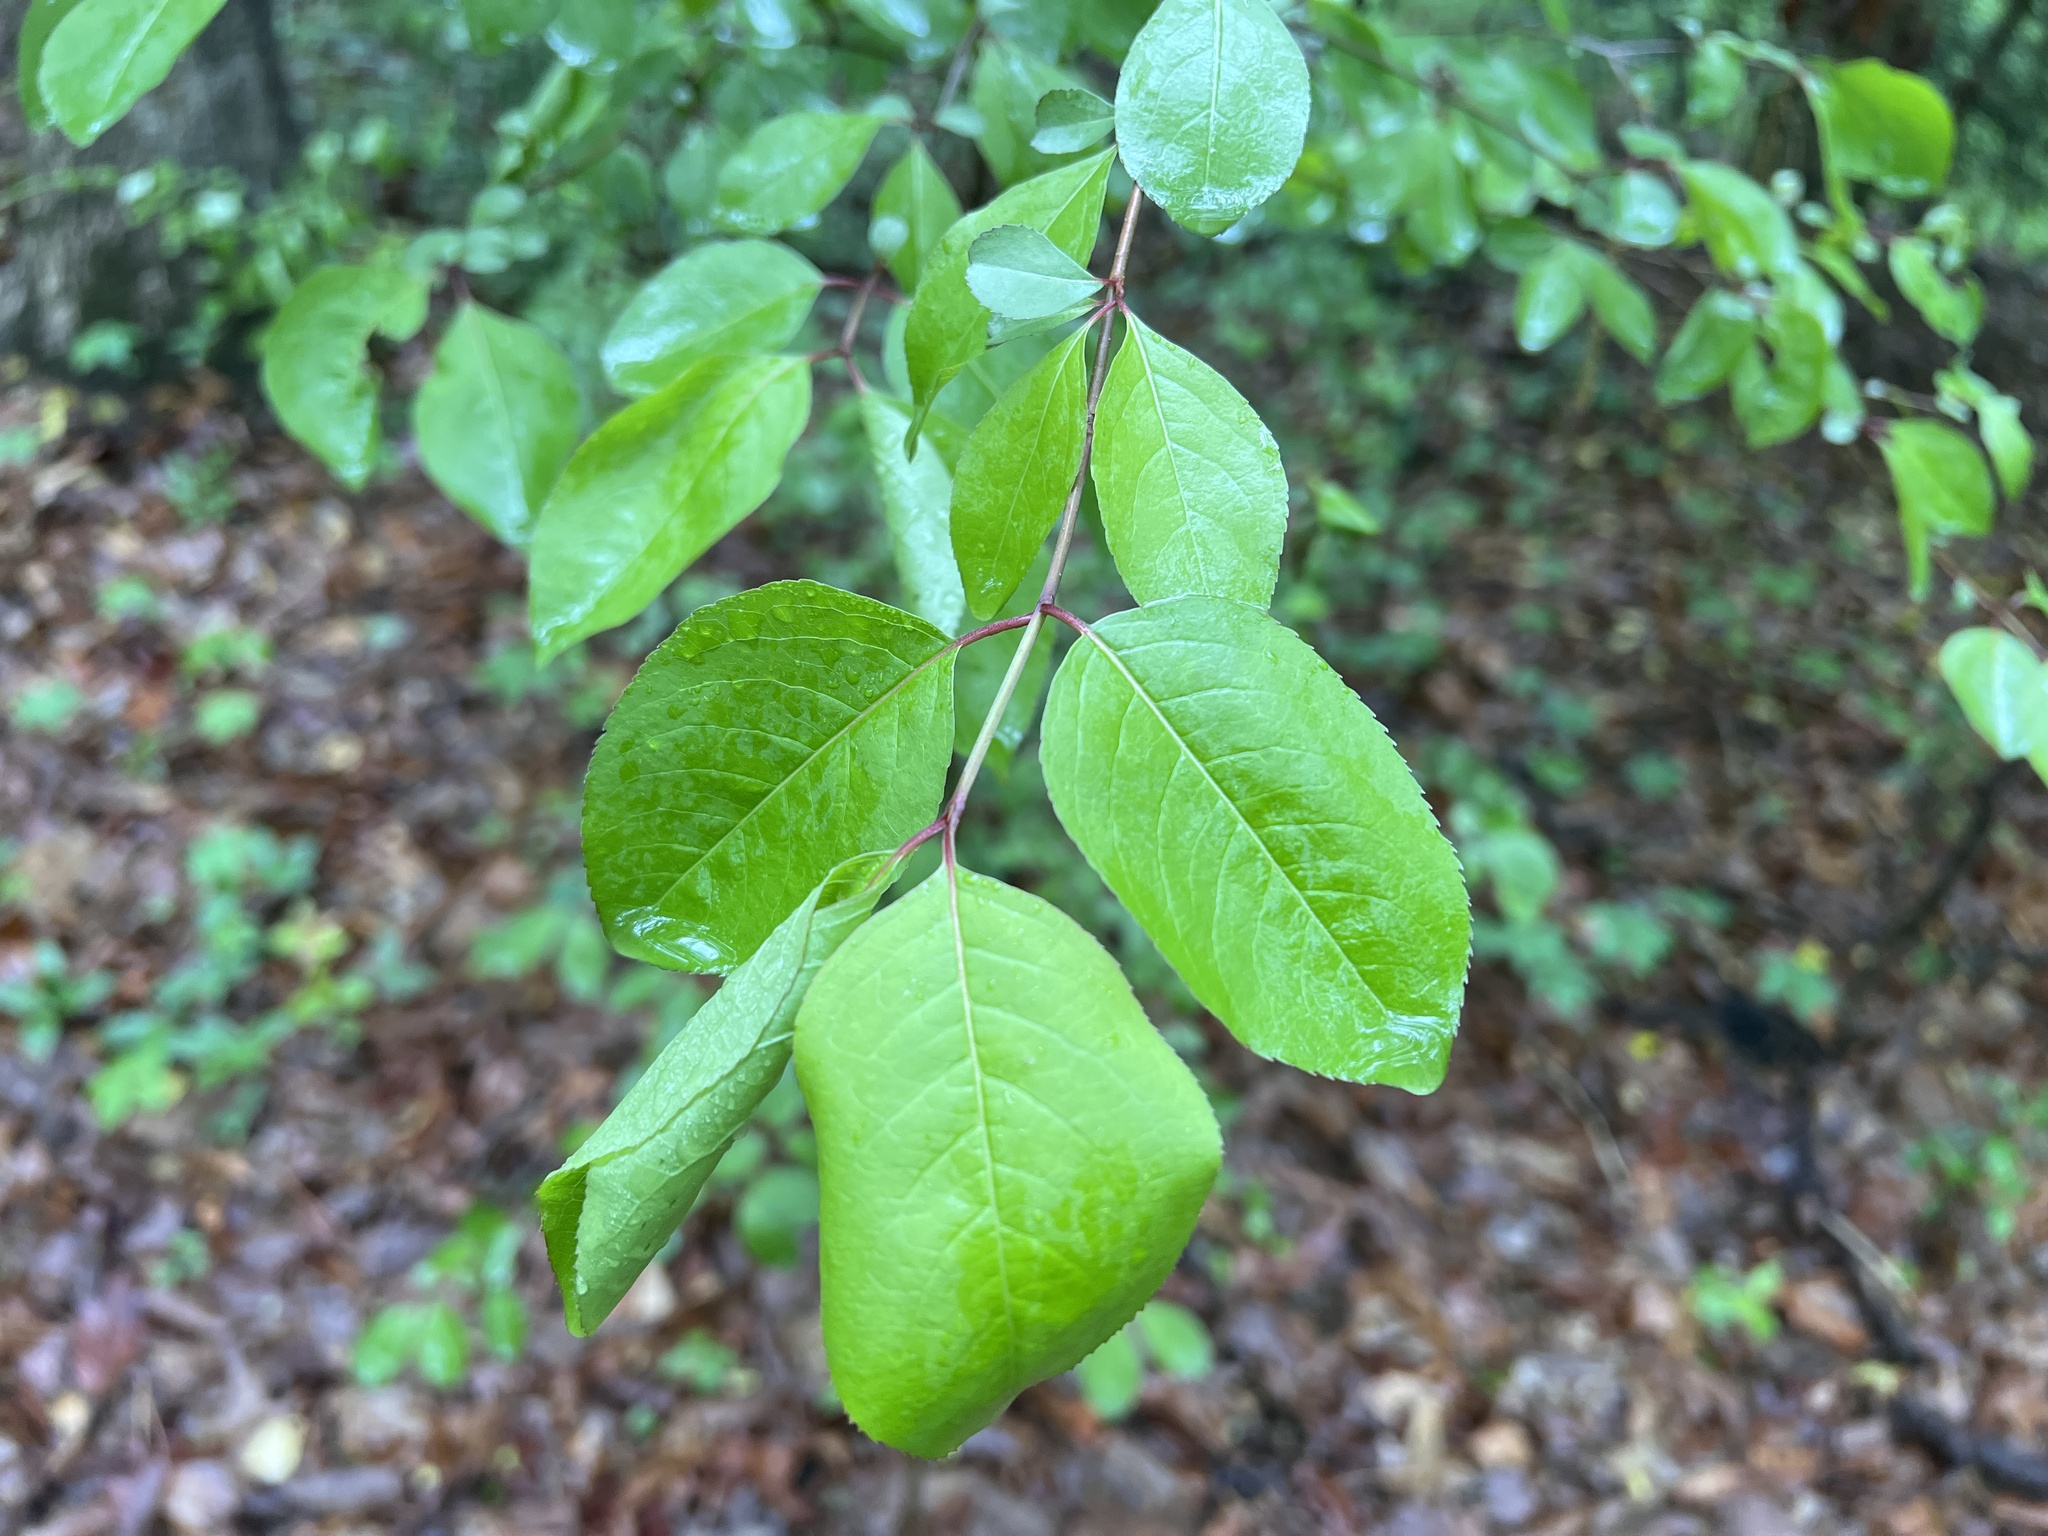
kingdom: Plantae
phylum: Tracheophyta
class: Magnoliopsida
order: Dipsacales
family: Viburnaceae
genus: Viburnum
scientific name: Viburnum prunifolium
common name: Black haw
